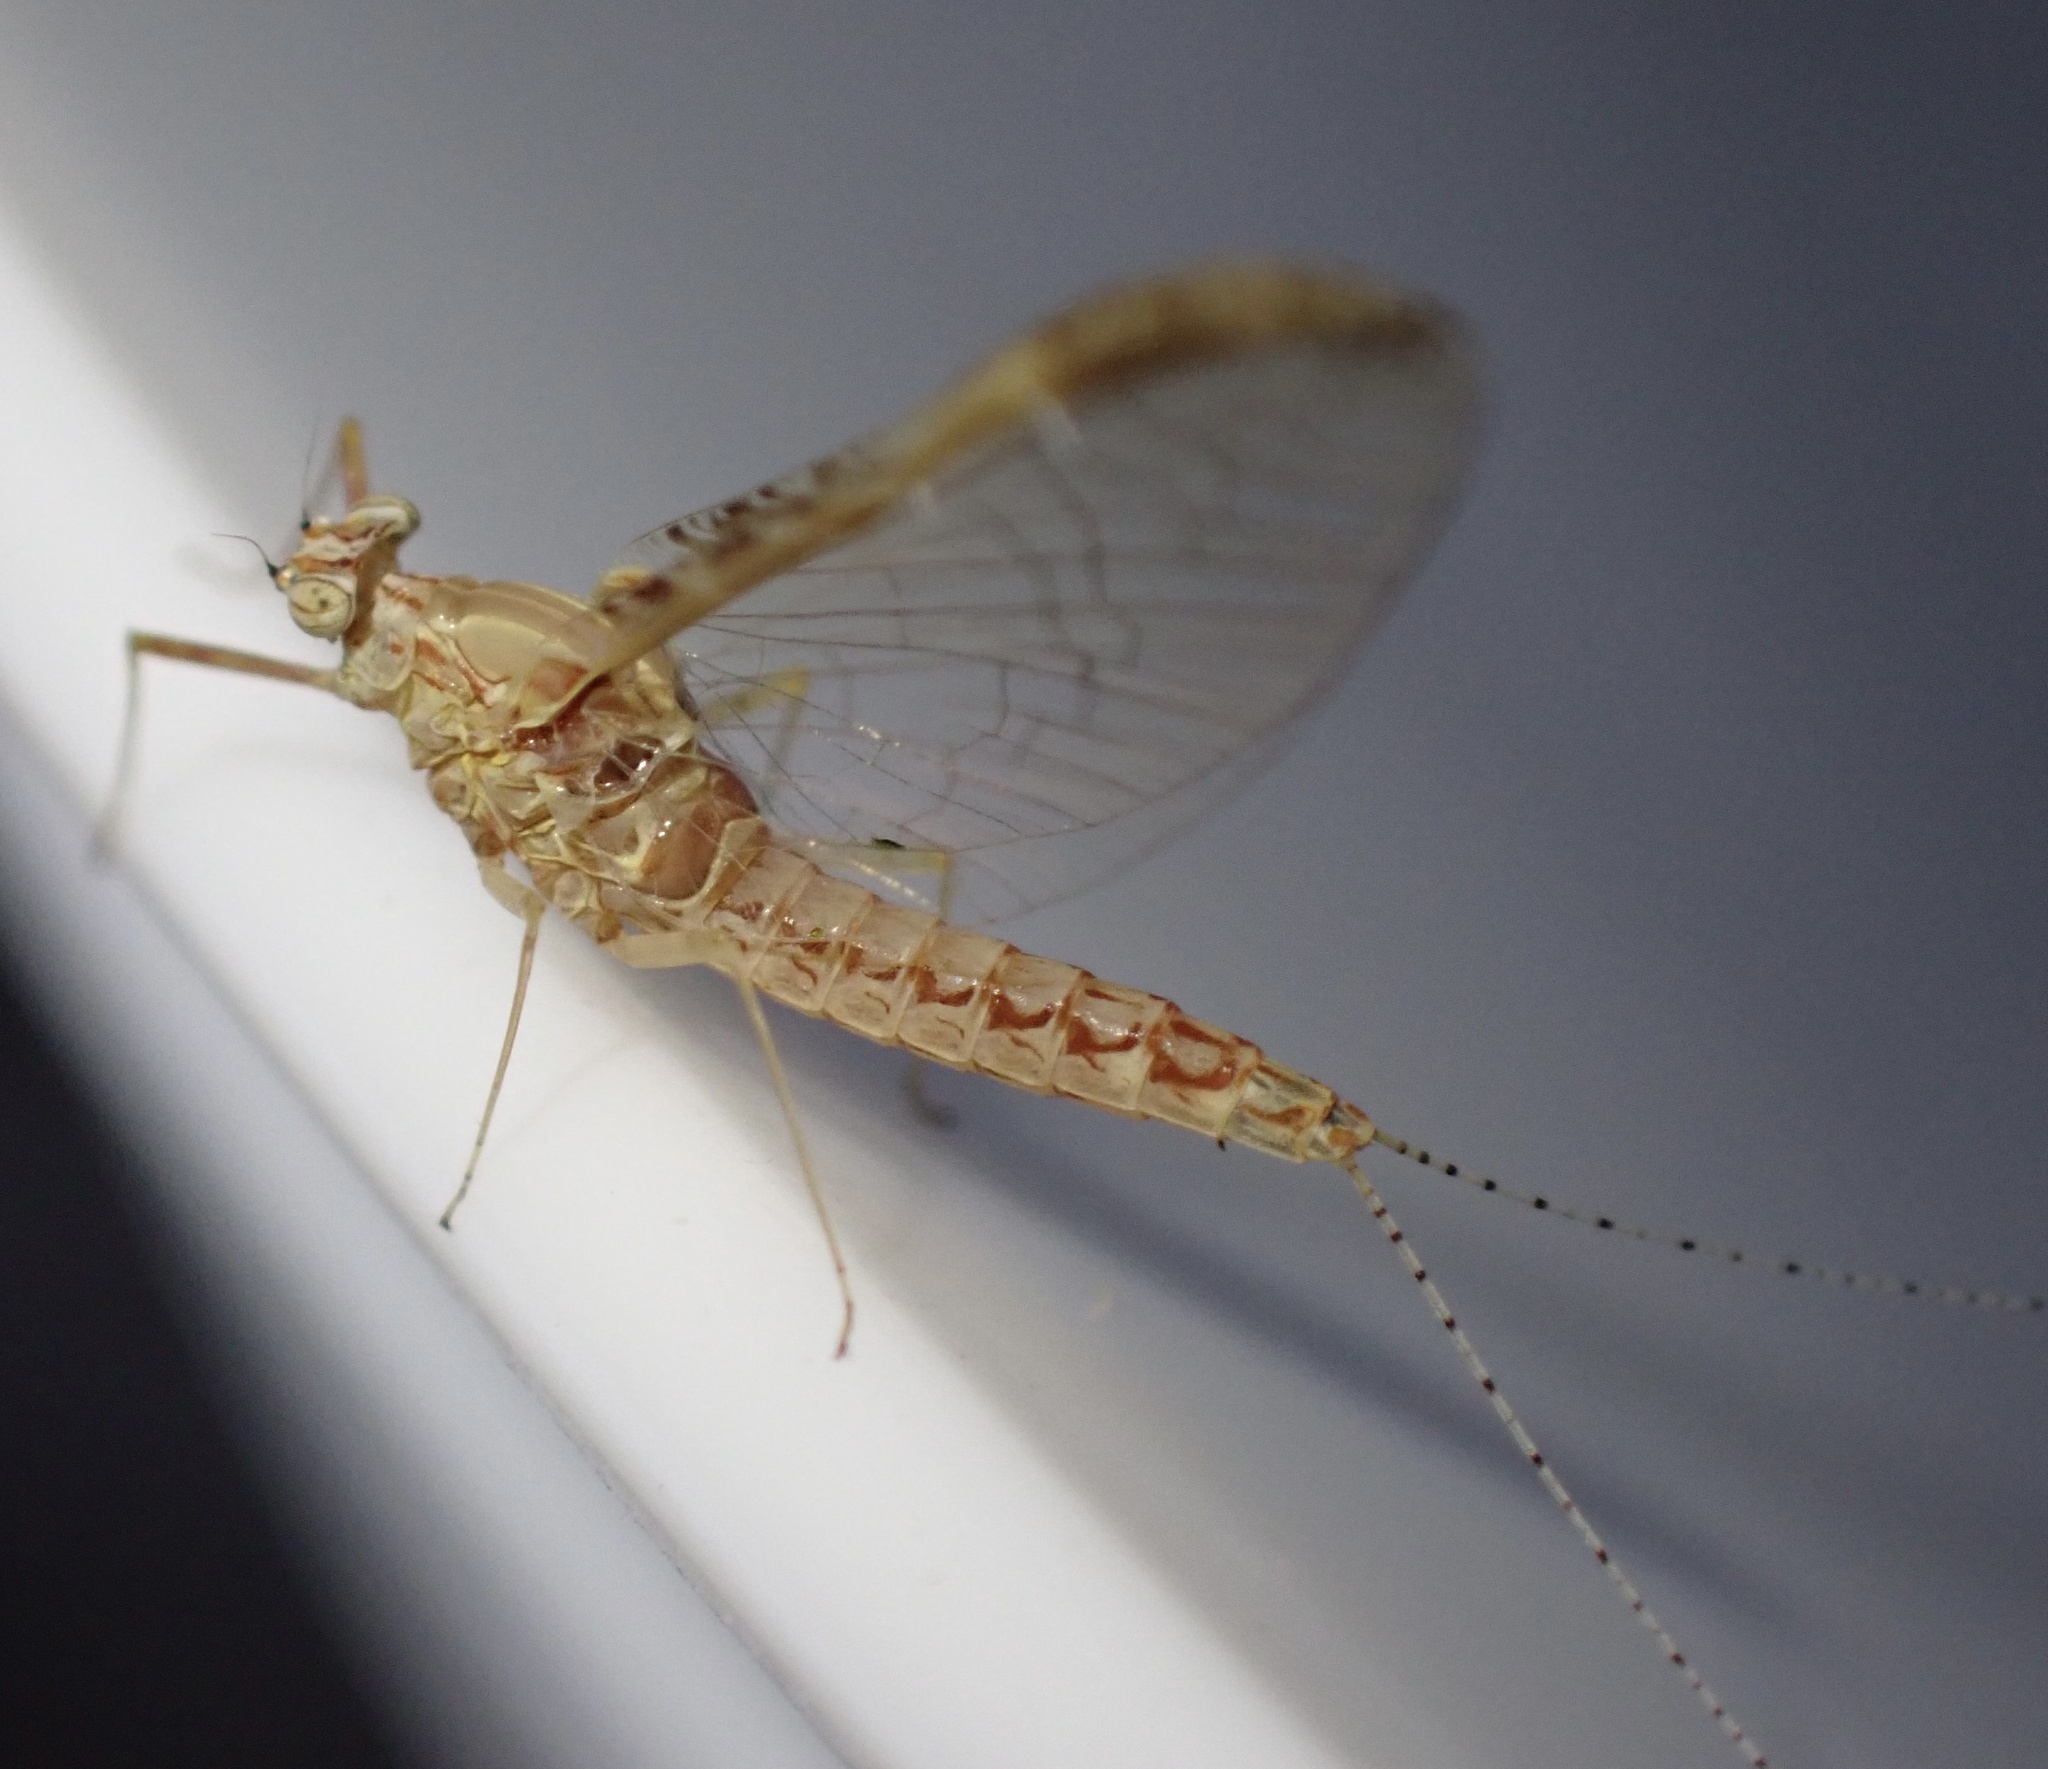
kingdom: Animalia
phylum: Arthropoda
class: Insecta
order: Ephemeroptera
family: Baetidae
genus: Cloeon
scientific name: Cloeon dipterum
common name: Pond olive
